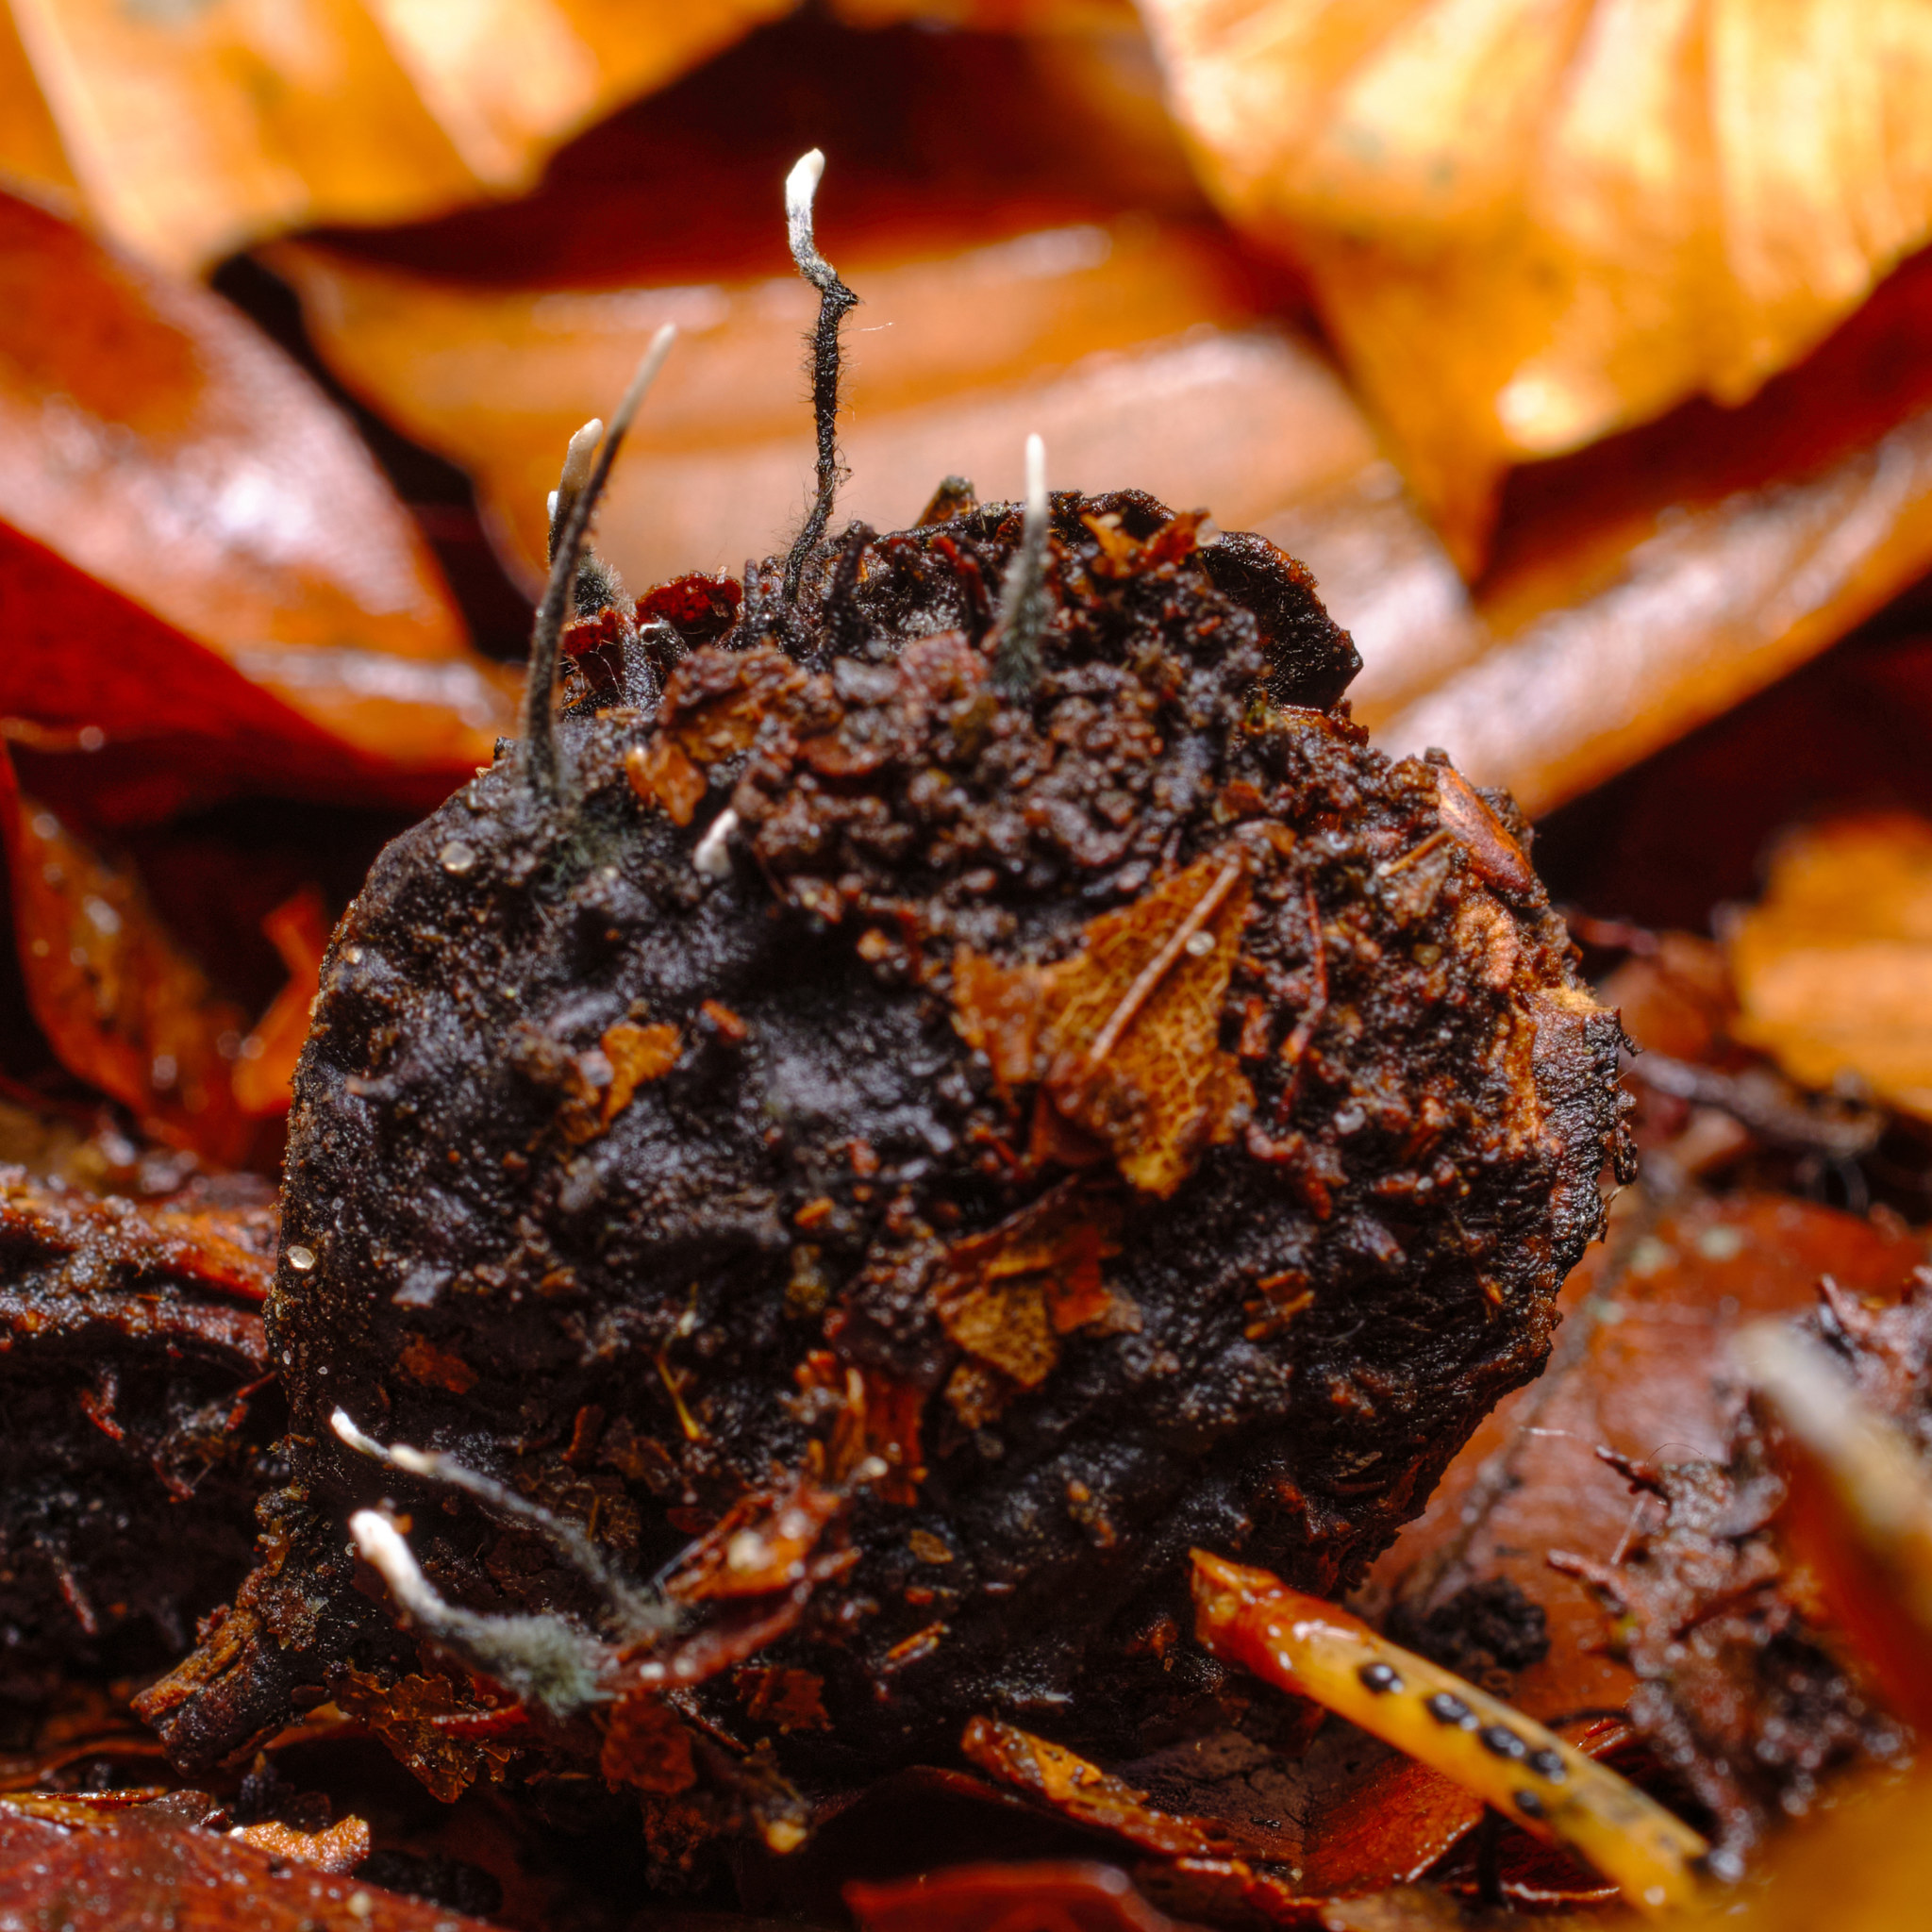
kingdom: Fungi
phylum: Ascomycota
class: Sordariomycetes
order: Xylariales
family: Xylariaceae
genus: Xylaria
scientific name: Xylaria carpophila
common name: Beechmast candlesnuff
